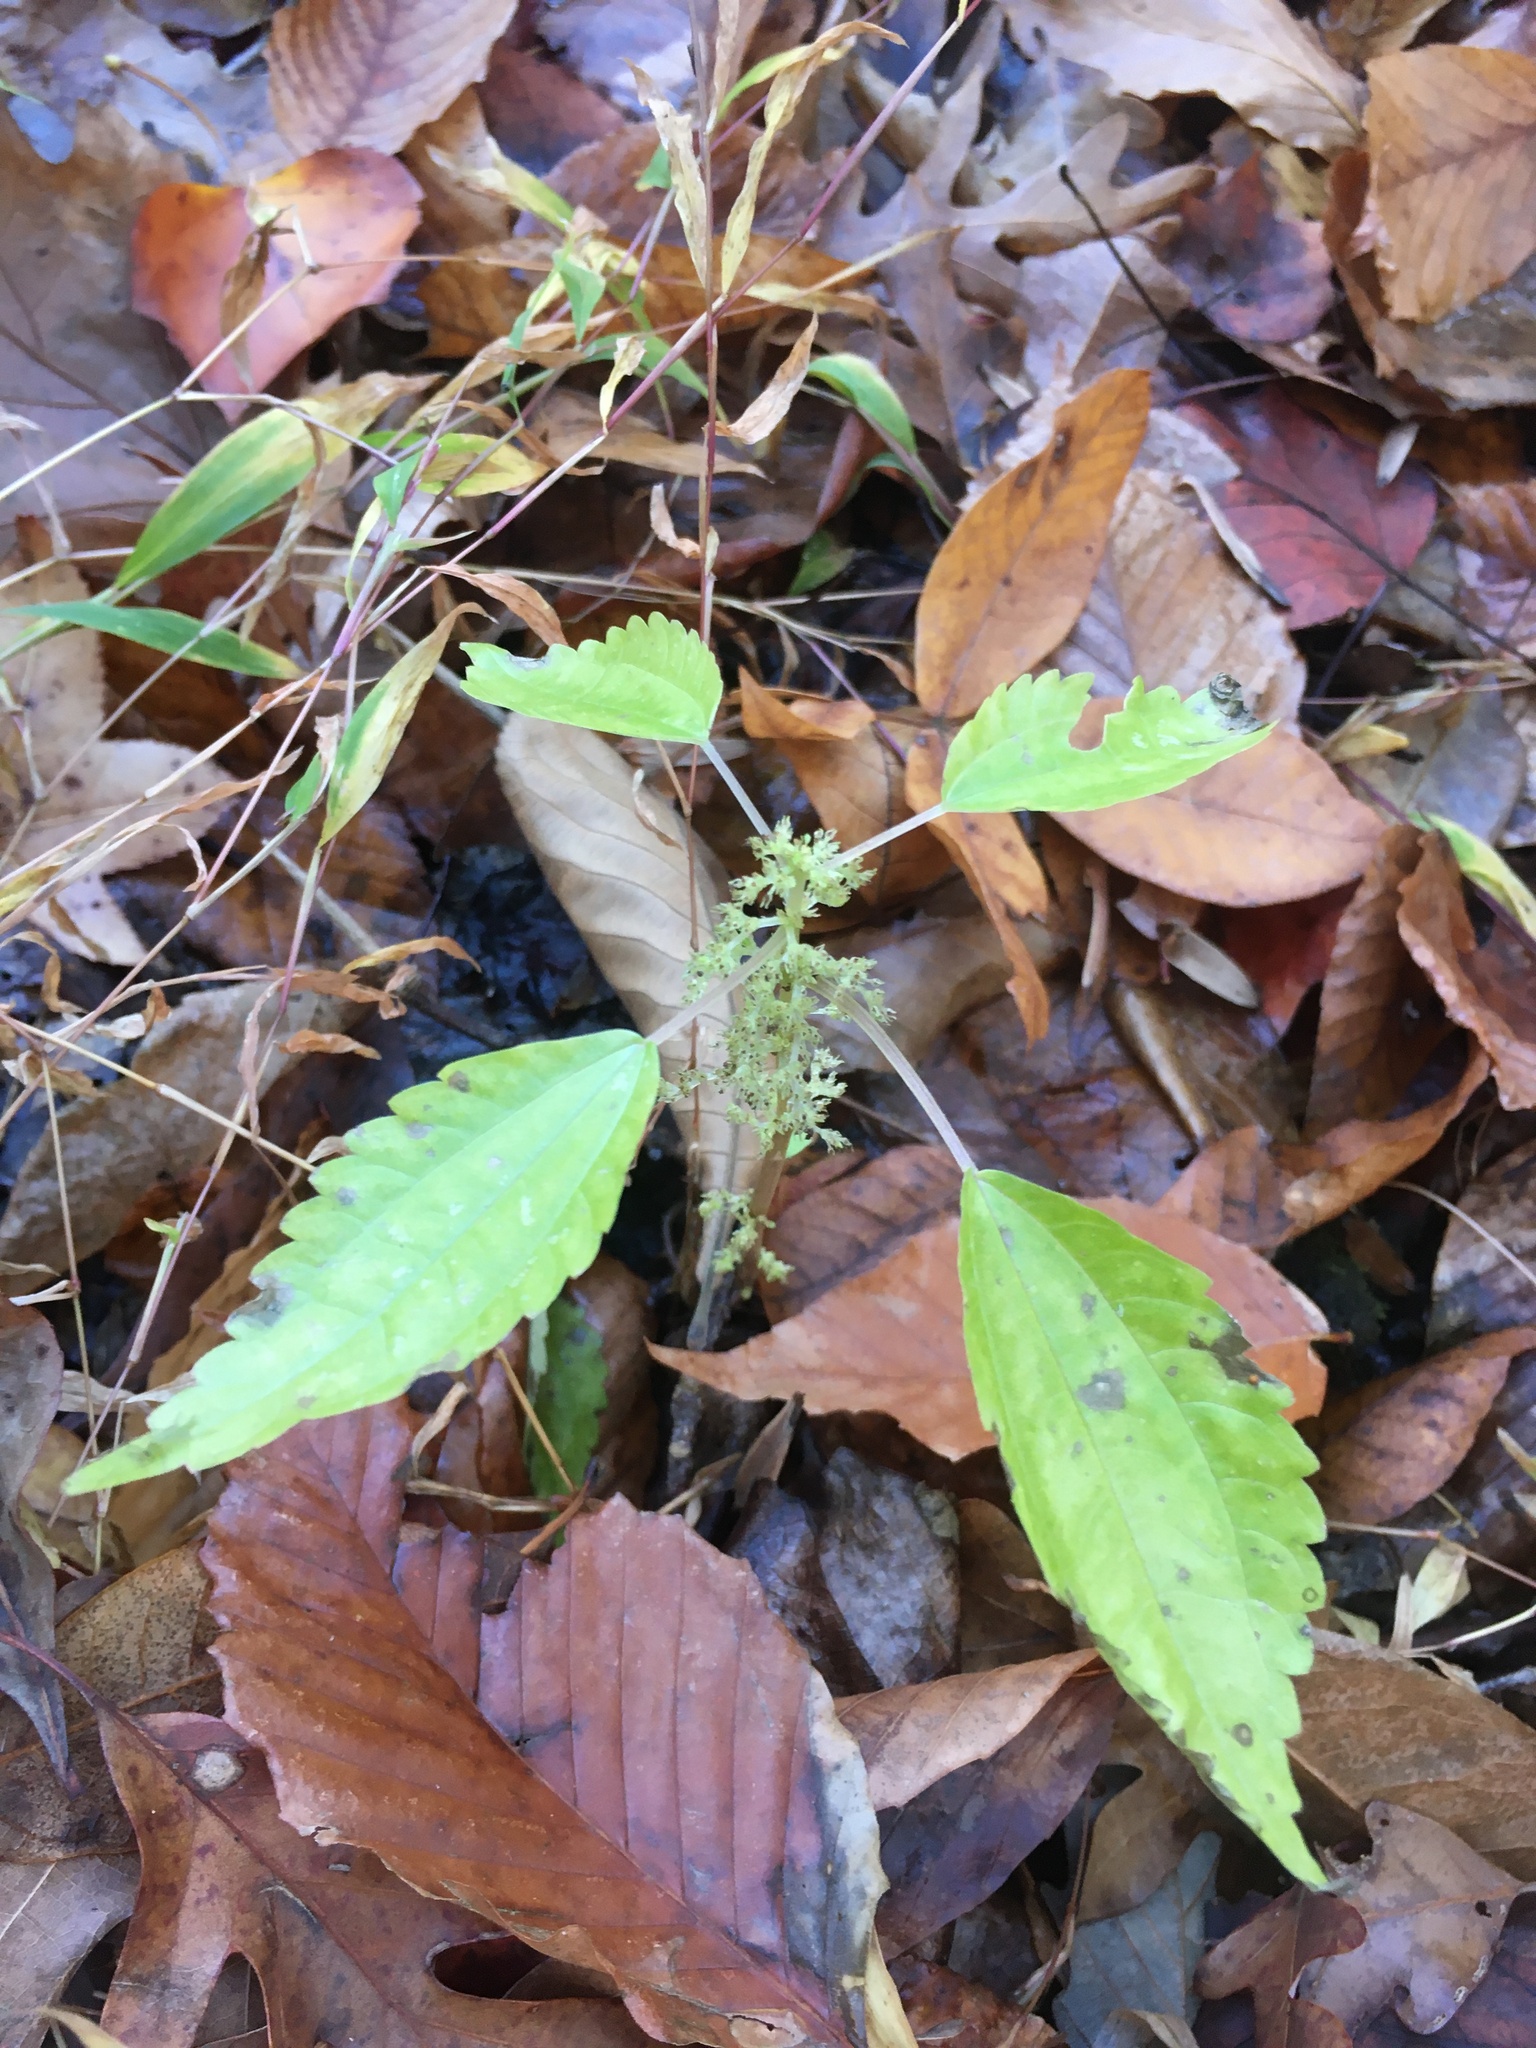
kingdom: Plantae
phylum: Tracheophyta
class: Magnoliopsida
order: Rosales
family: Urticaceae
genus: Pilea
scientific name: Pilea pumila
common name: Clearweed
